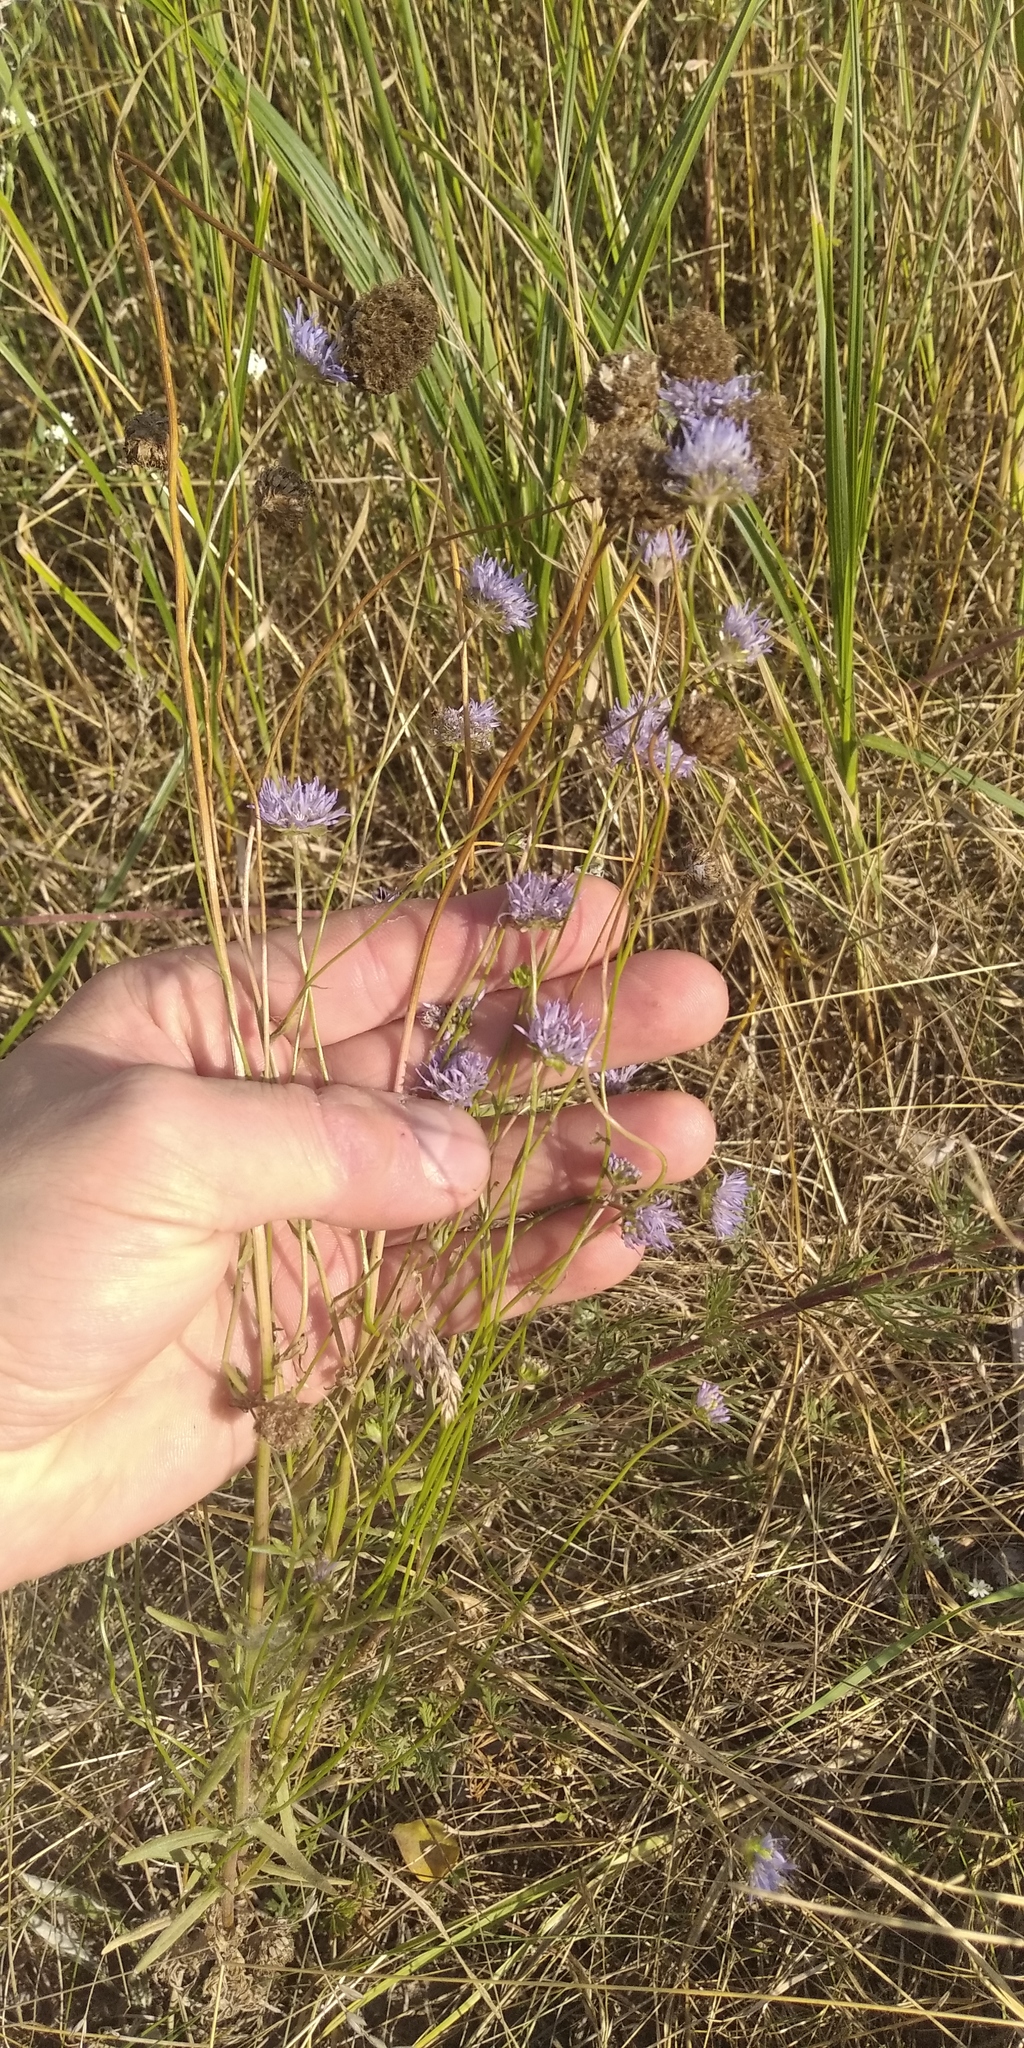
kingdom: Plantae
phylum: Tracheophyta
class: Magnoliopsida
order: Asterales
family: Campanulaceae
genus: Jasione
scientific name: Jasione montana
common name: Sheep's-bit
